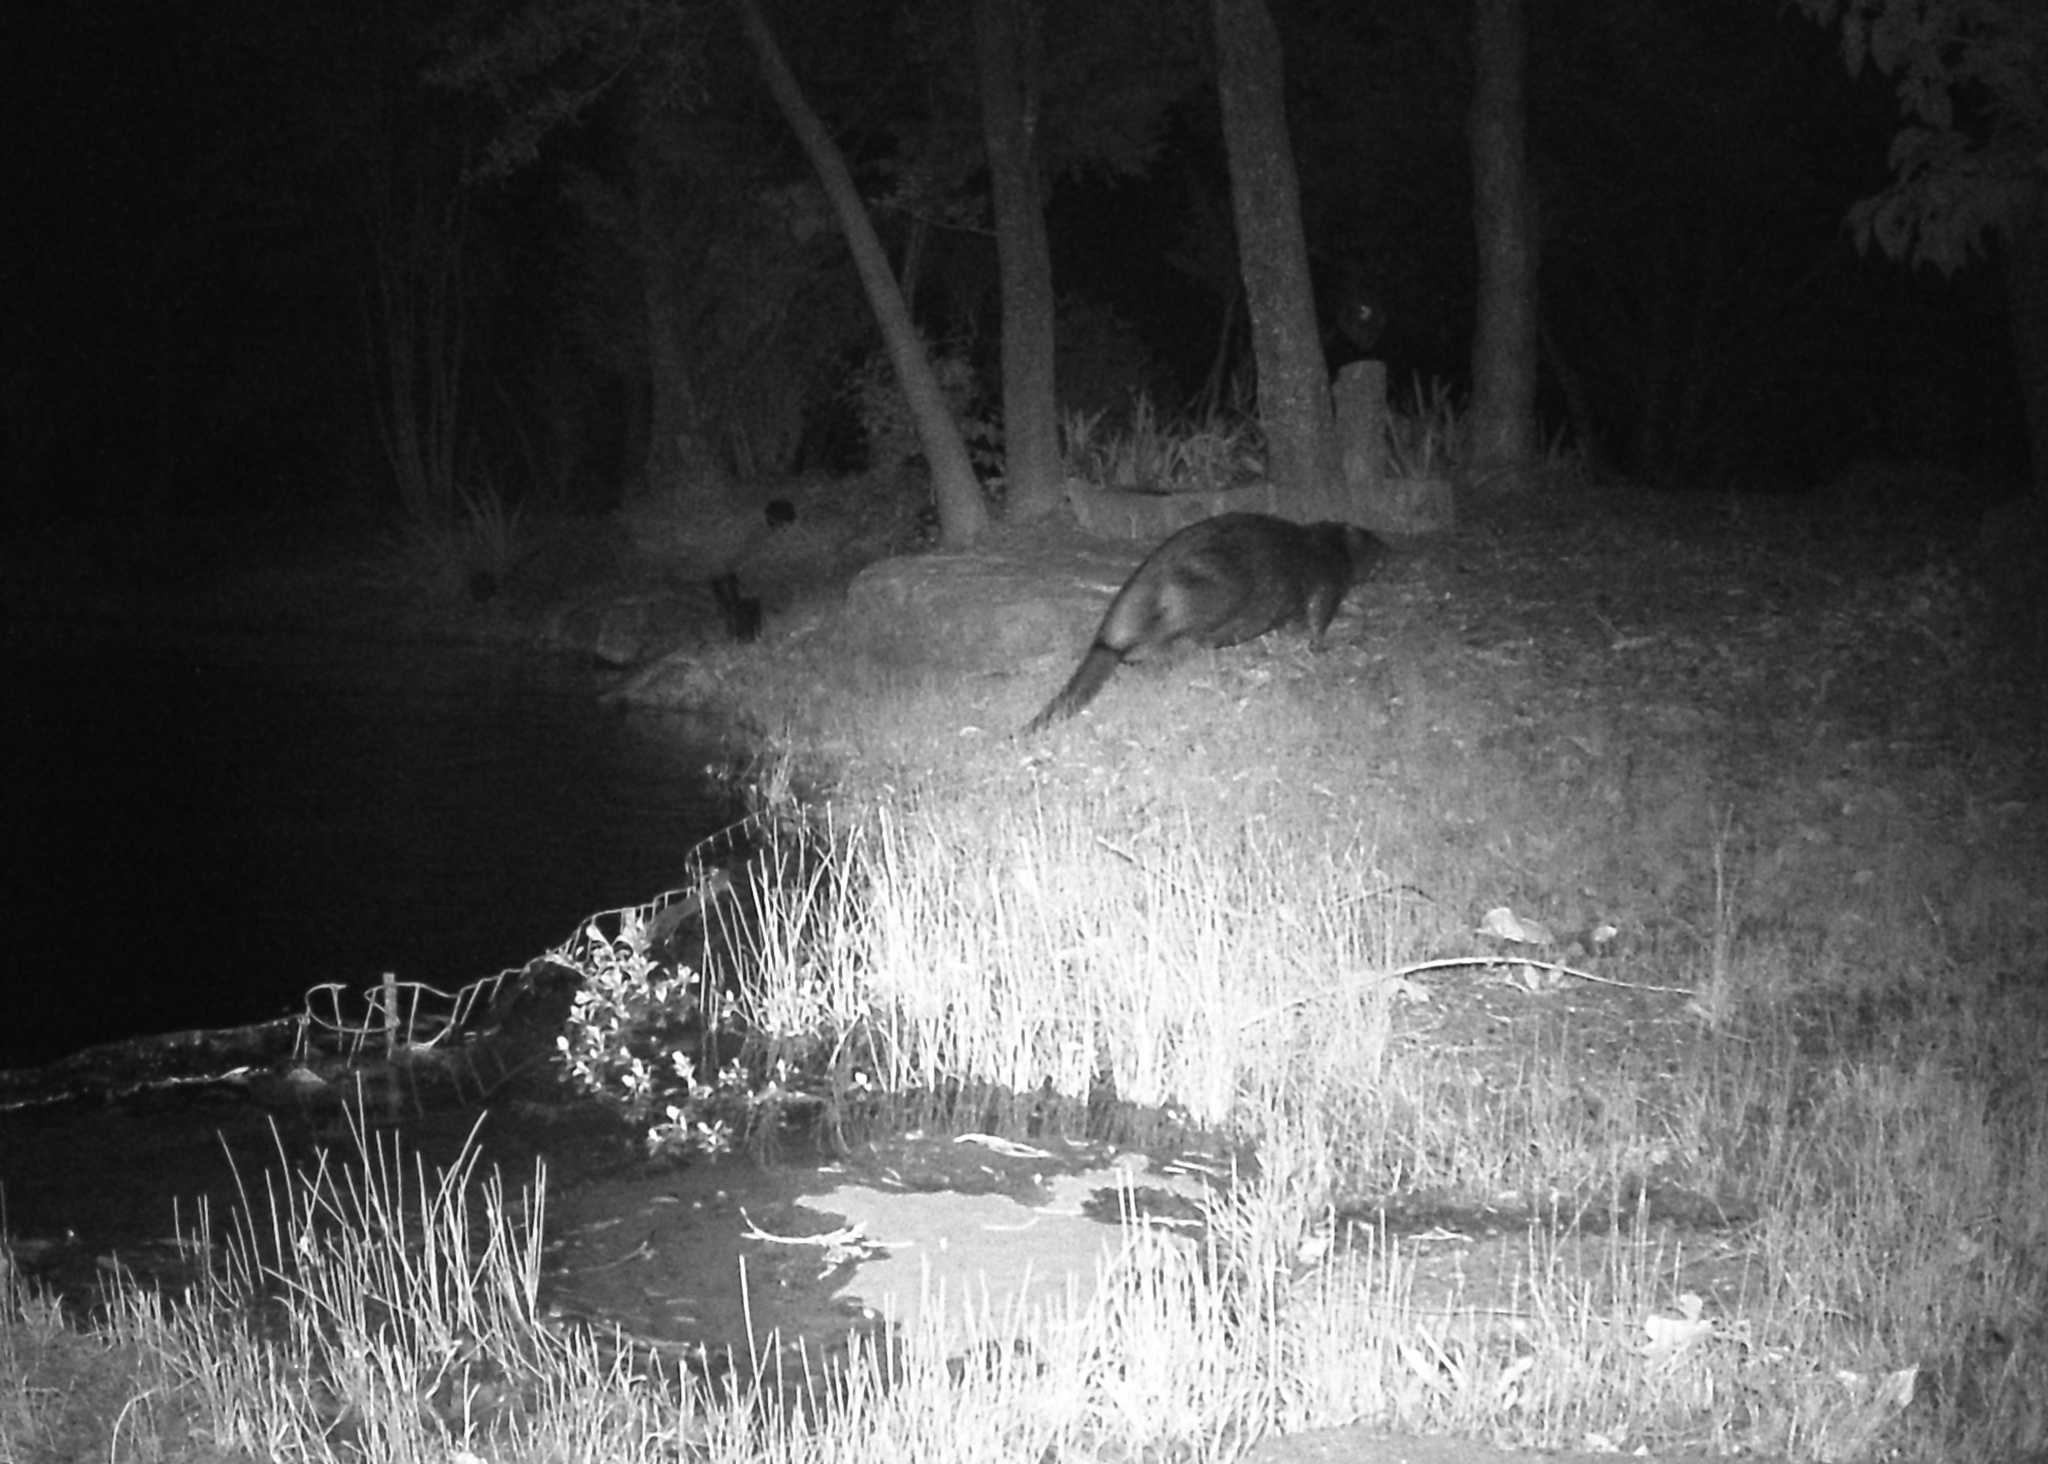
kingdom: Animalia
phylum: Chordata
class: Mammalia
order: Rodentia
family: Castoridae
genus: Castor
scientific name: Castor canadensis
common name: American beaver
